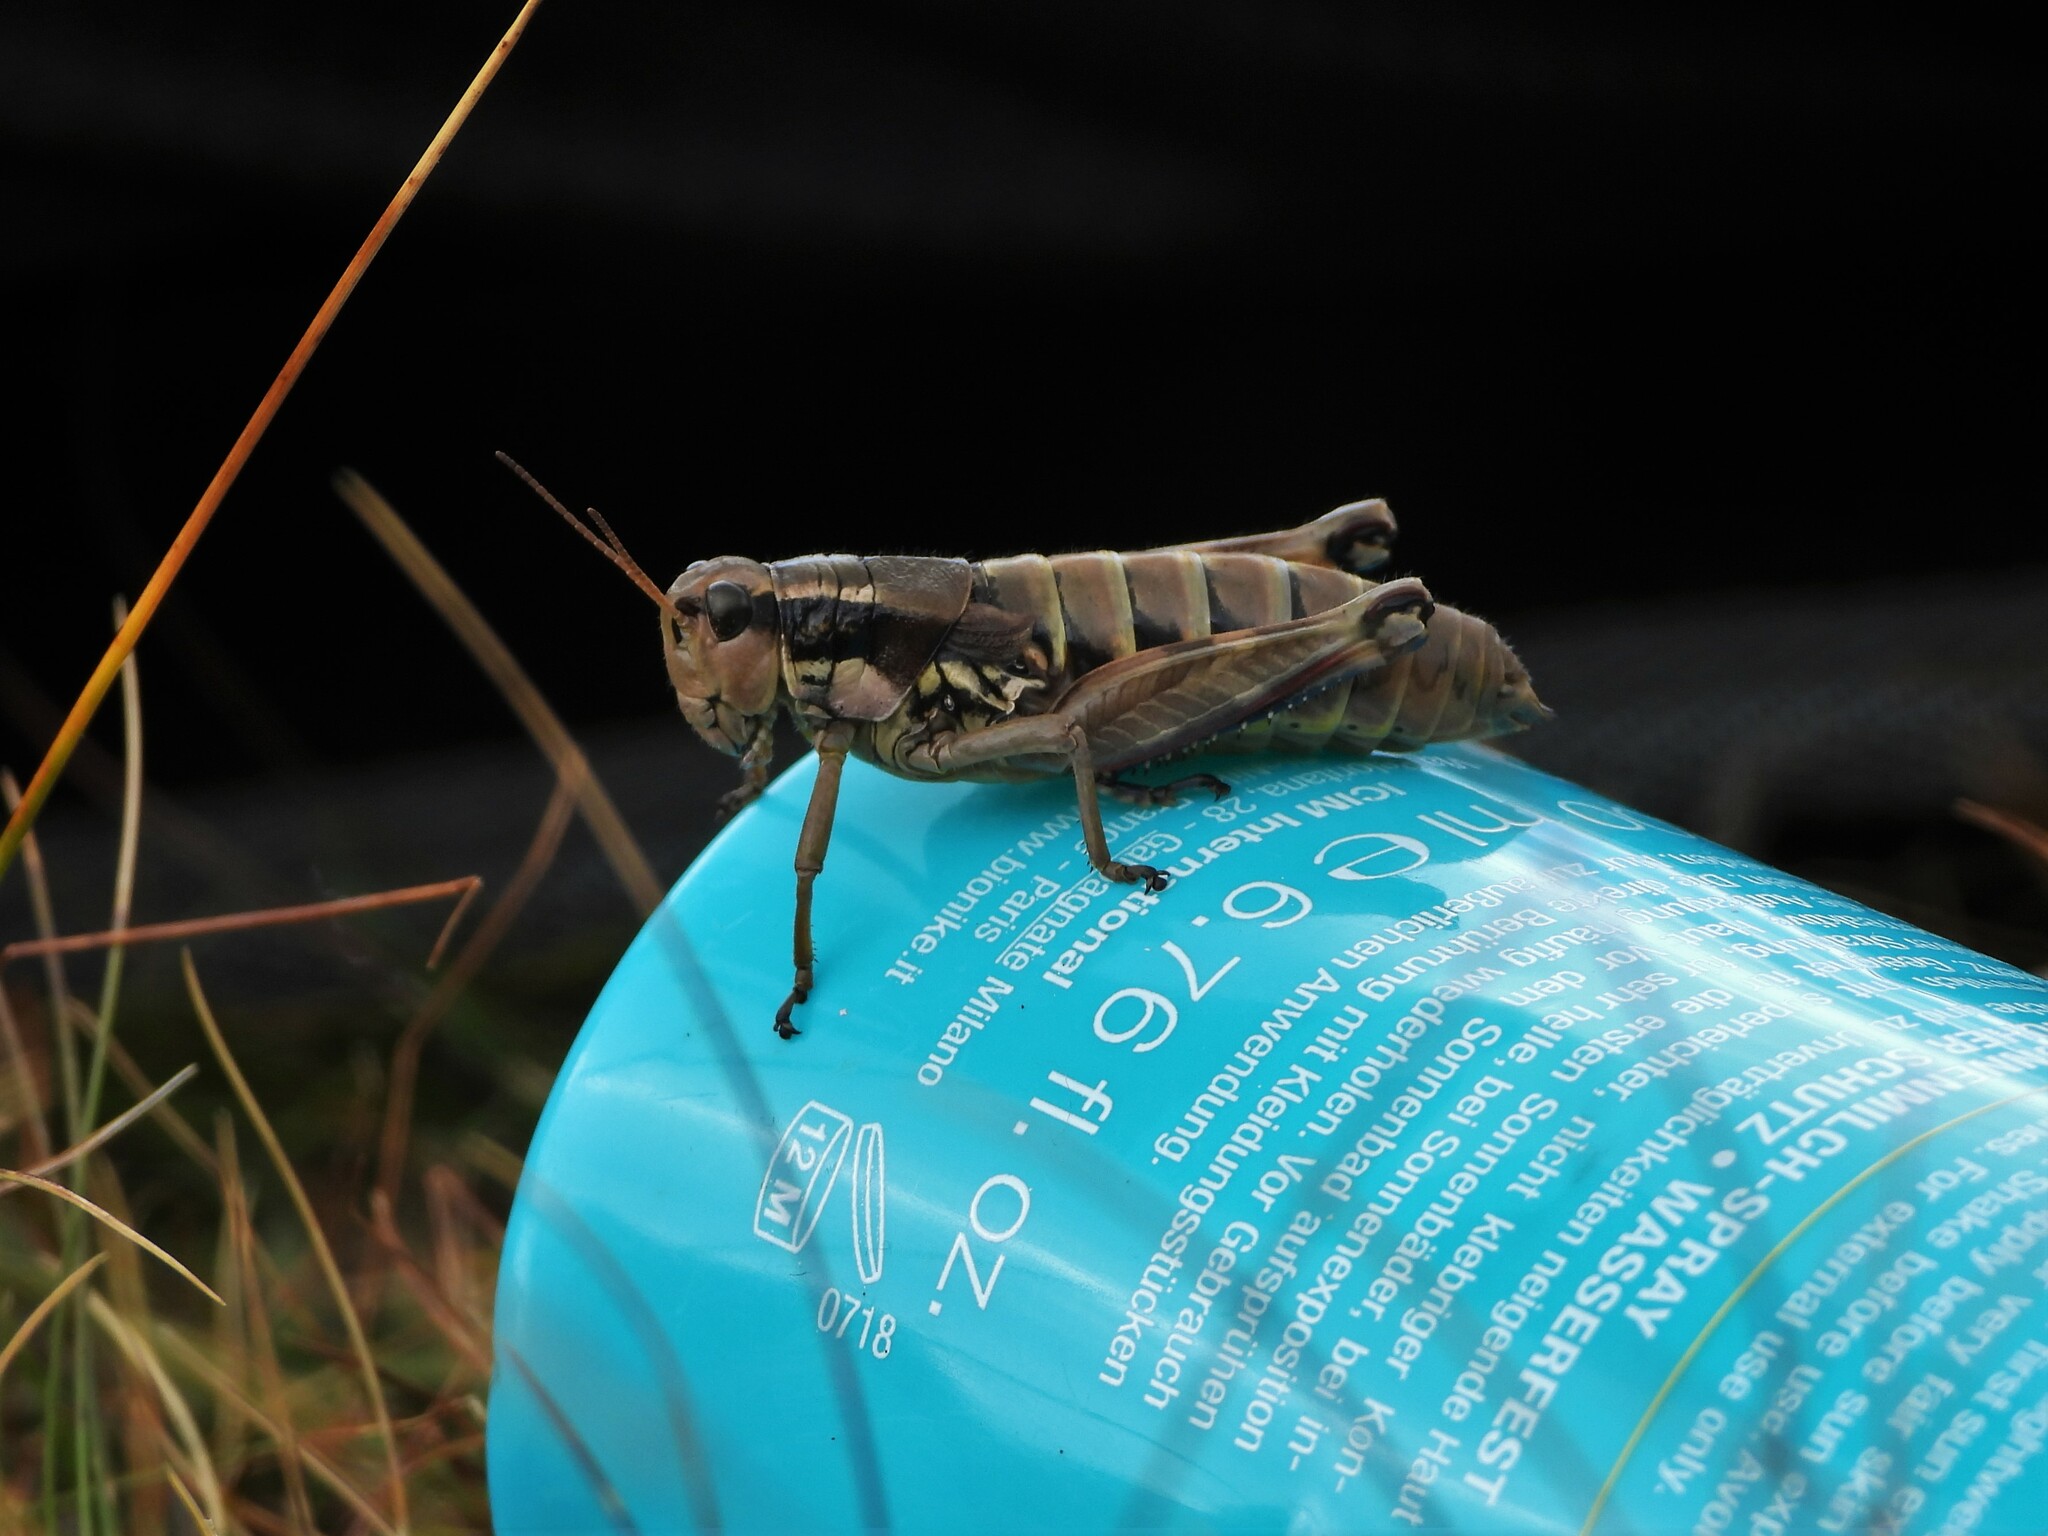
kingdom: Animalia
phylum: Arthropoda
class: Insecta
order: Orthoptera
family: Acrididae
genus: Podisma
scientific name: Podisma pedestris
